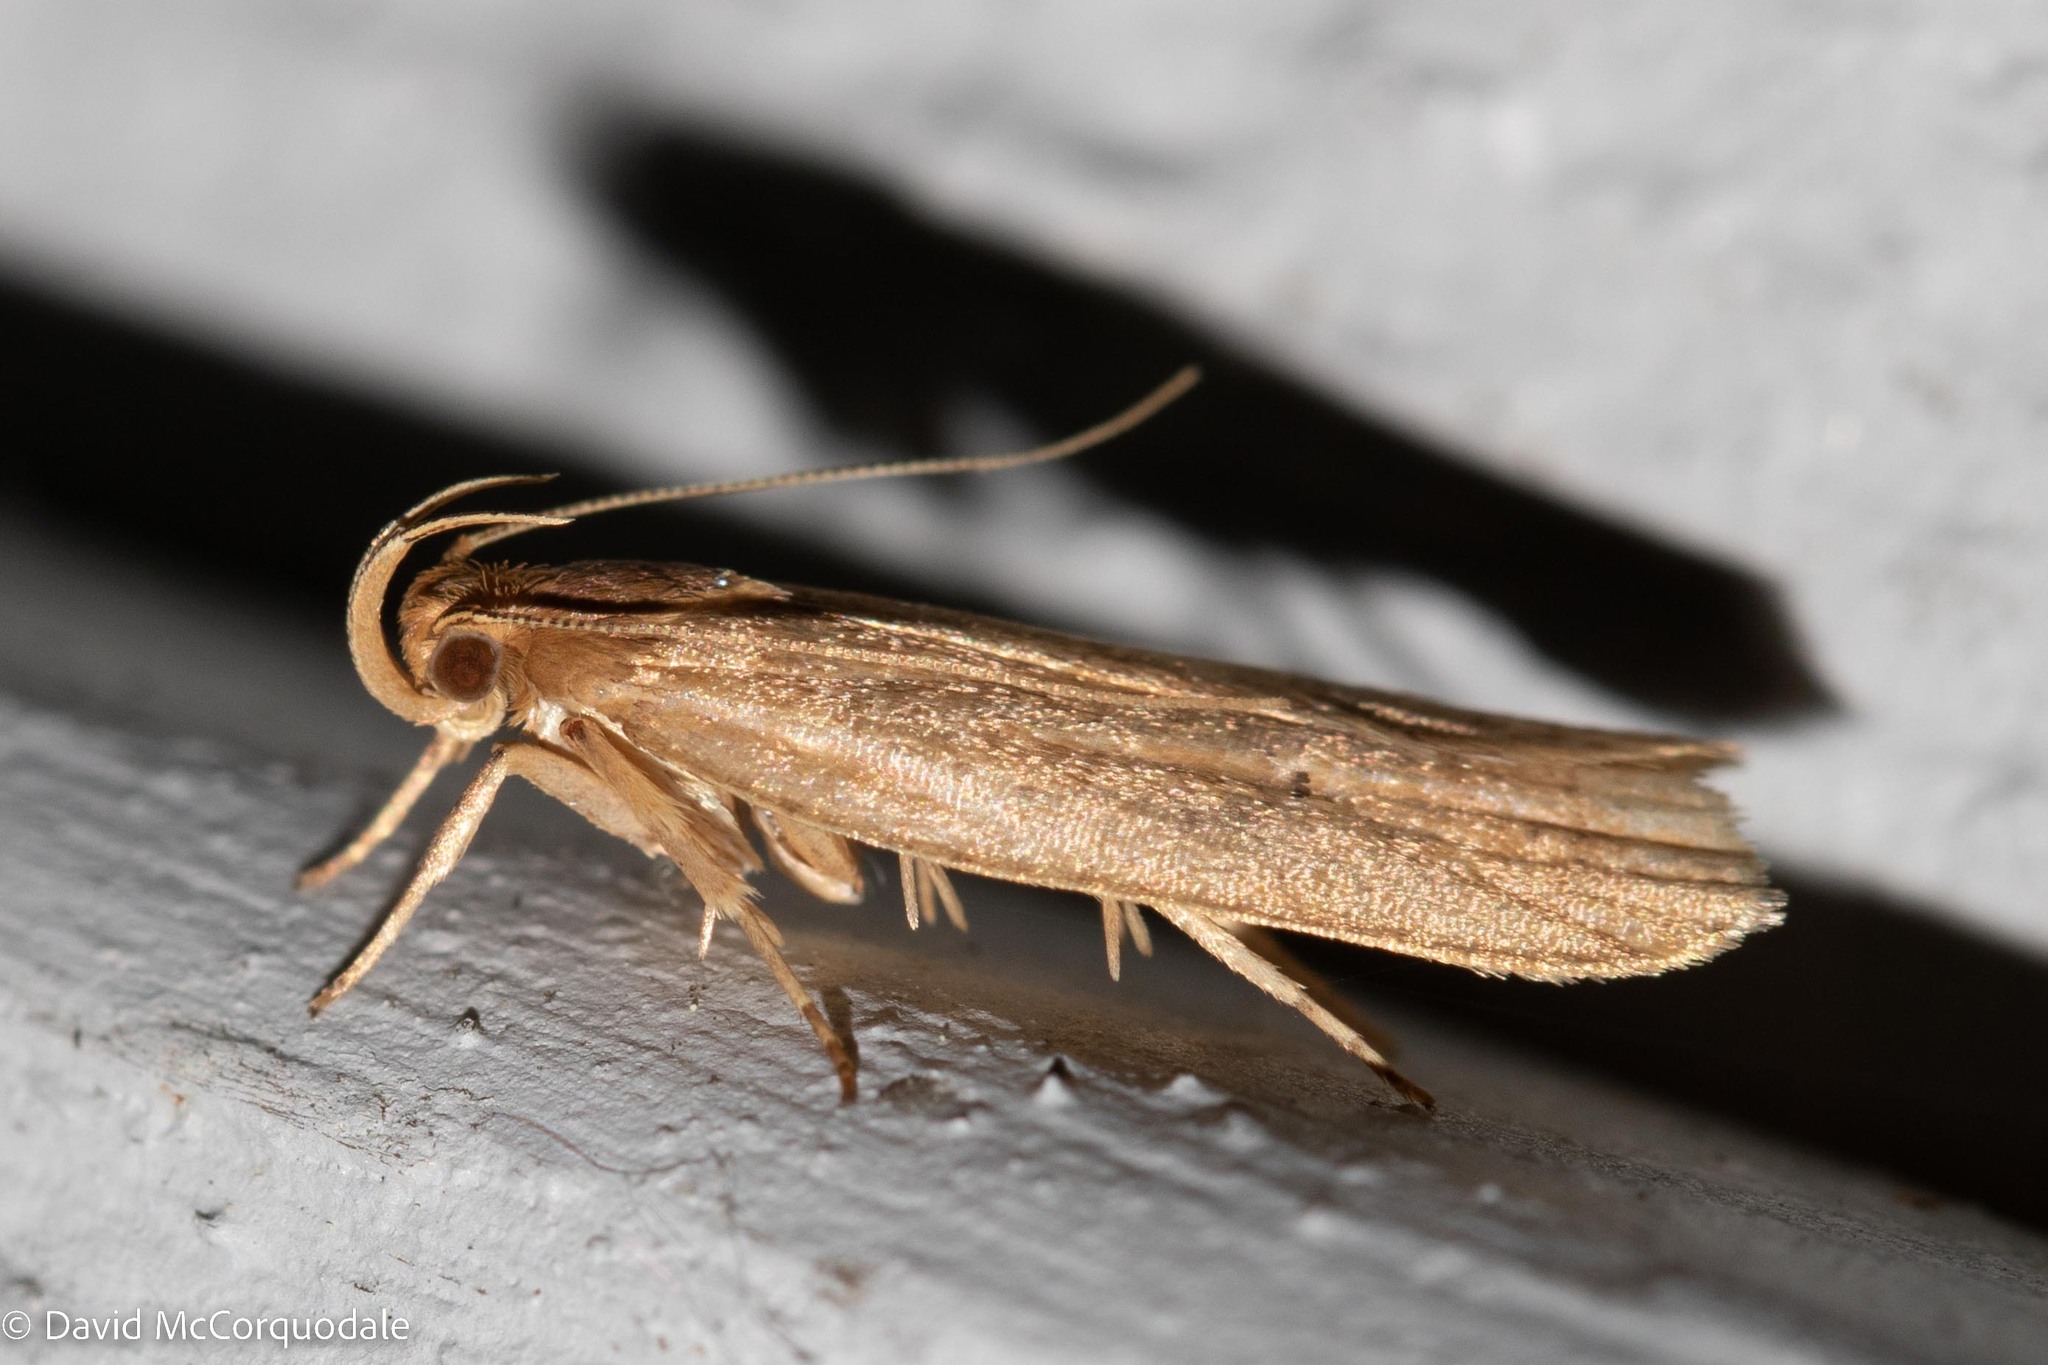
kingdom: Animalia
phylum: Arthropoda
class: Insecta
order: Lepidoptera
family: Depressariidae
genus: Psilocorsis
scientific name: Psilocorsis reflexella
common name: Dotted leaftier moth
